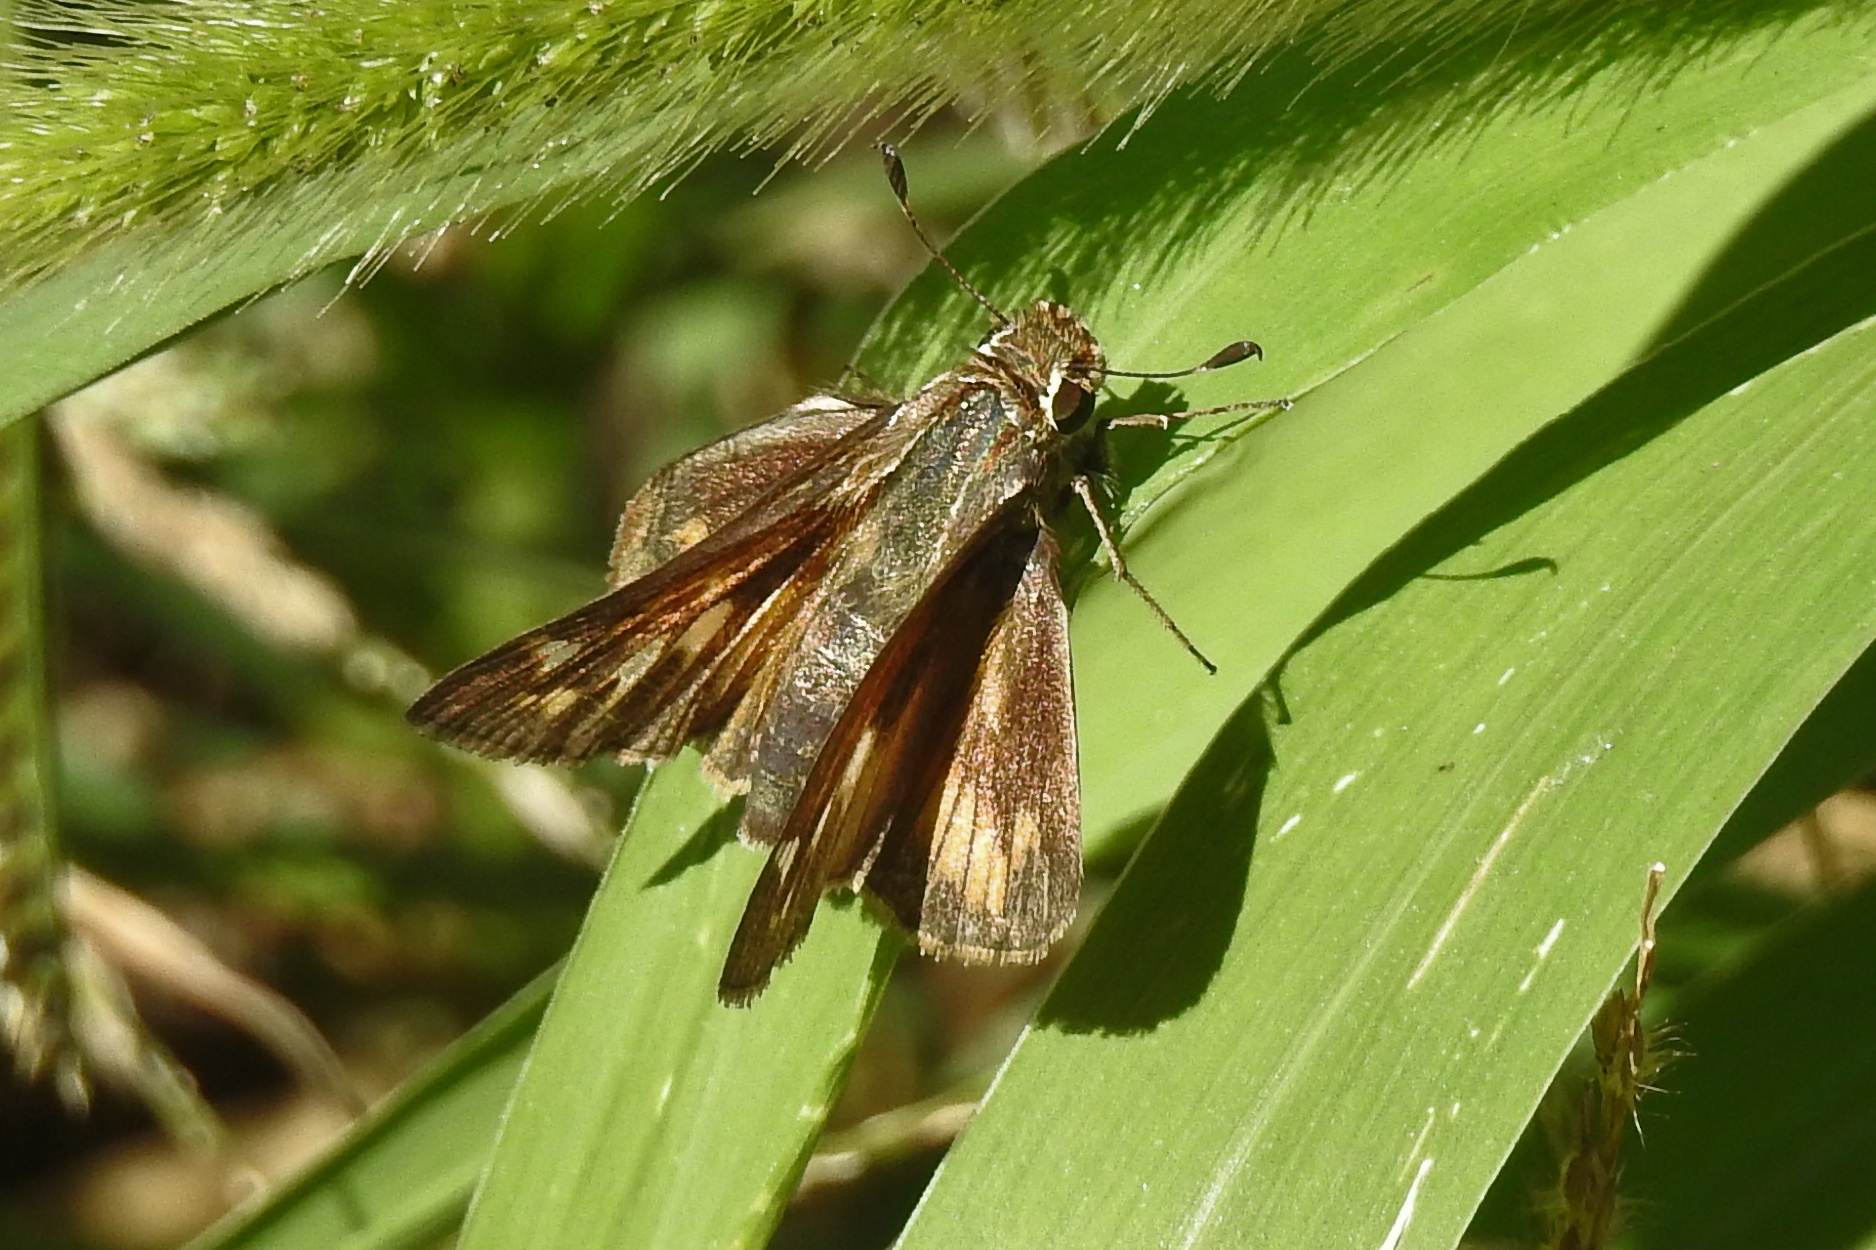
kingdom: Animalia
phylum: Arthropoda
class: Insecta
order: Lepidoptera
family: Hesperiidae
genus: Atalopedes
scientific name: Atalopedes
